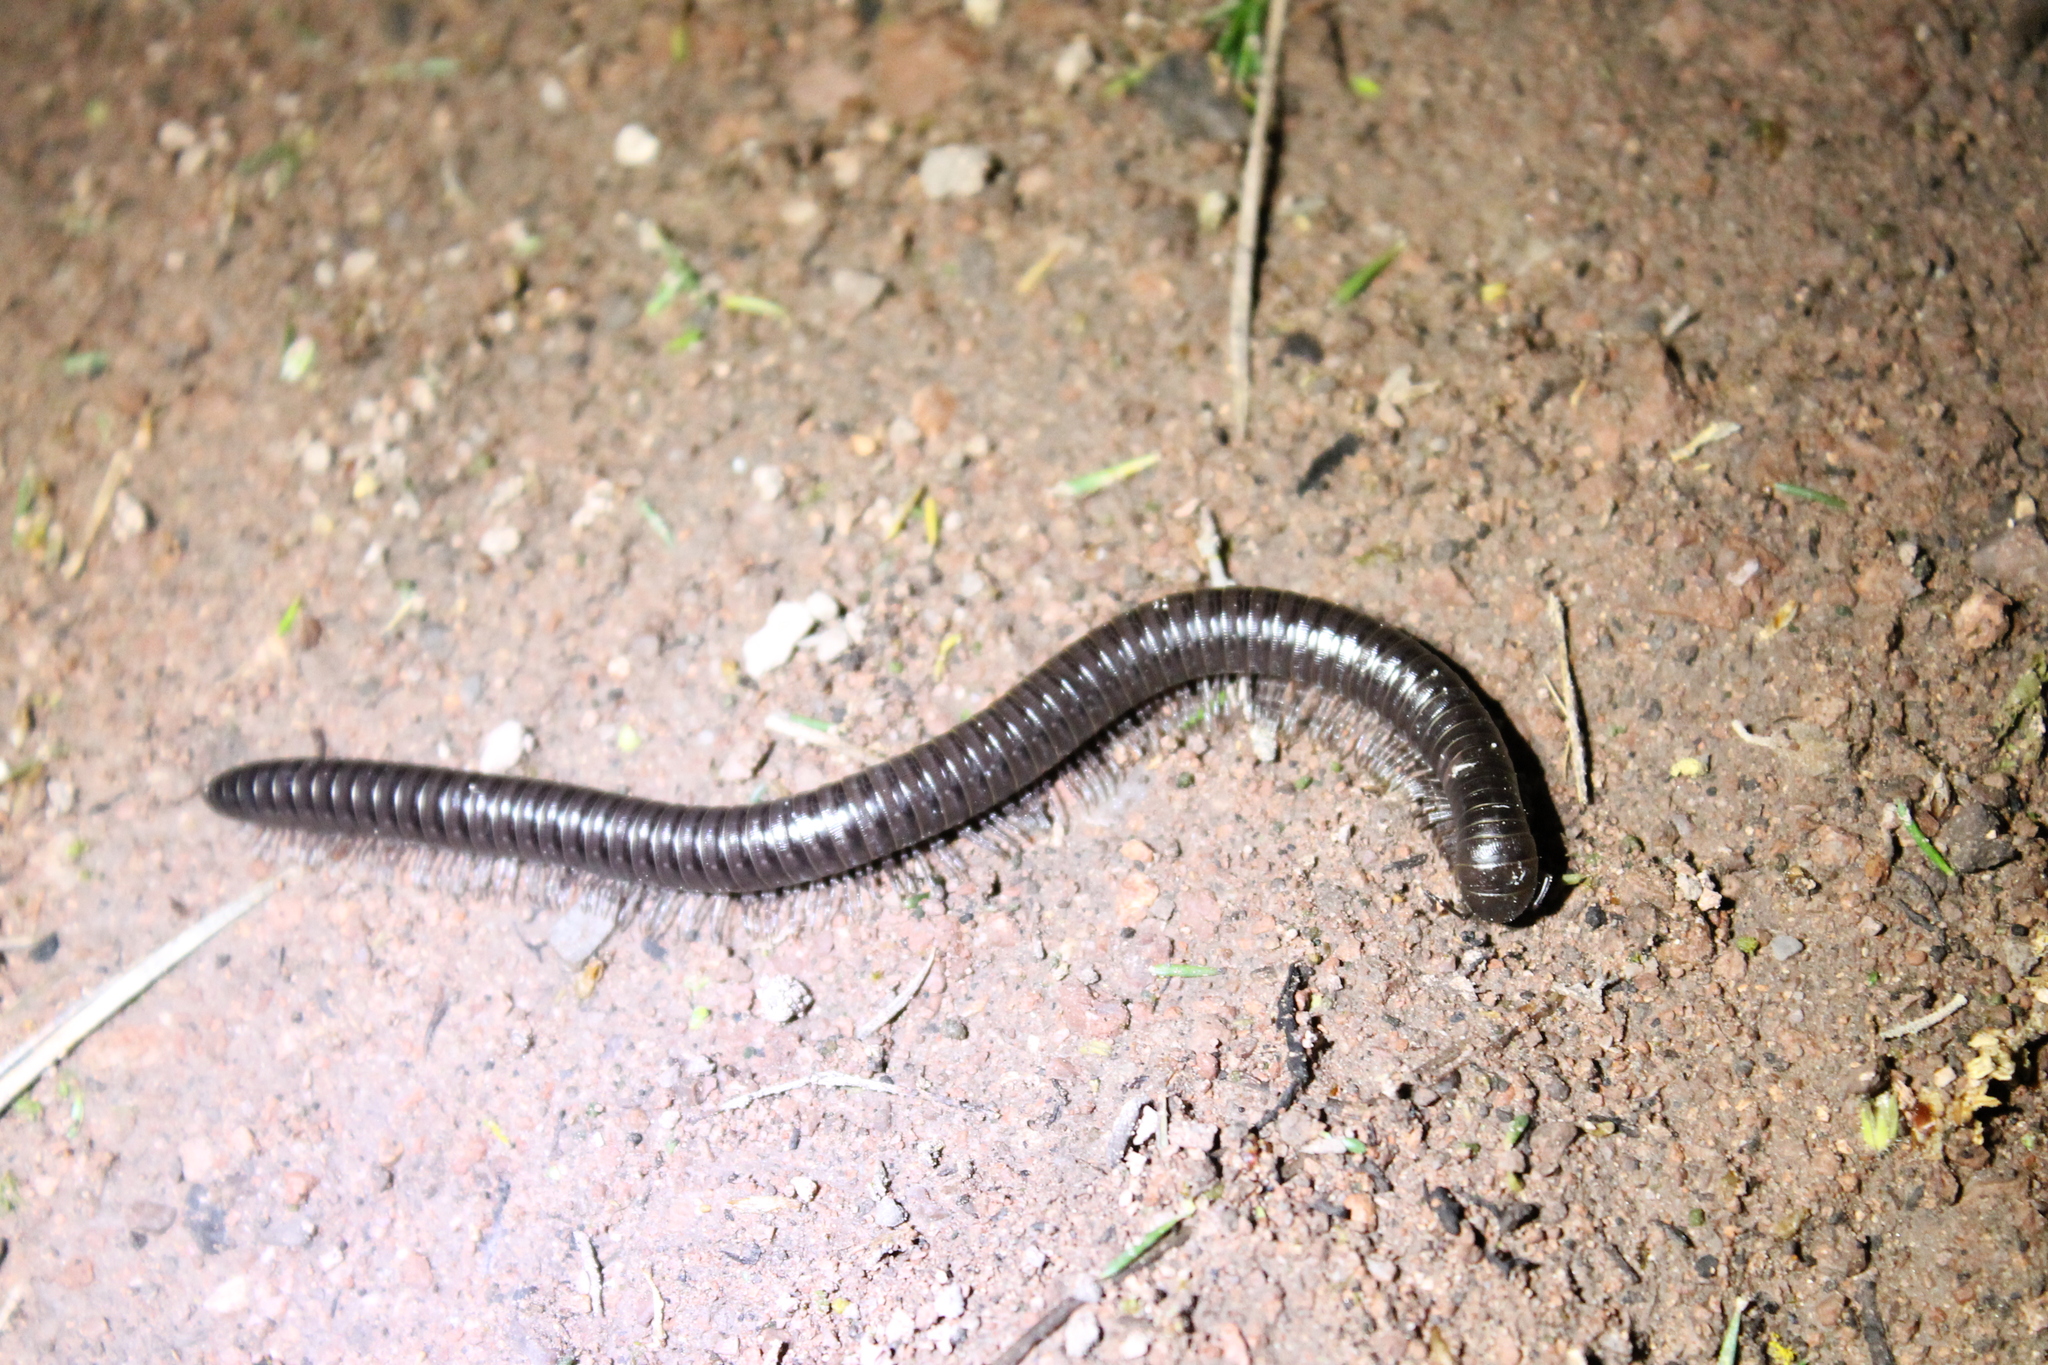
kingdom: Animalia
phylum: Arthropoda
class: Diplopoda
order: Julida
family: Paeromopodidae
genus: Paeromopus
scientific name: Paeromopus angusticeps
